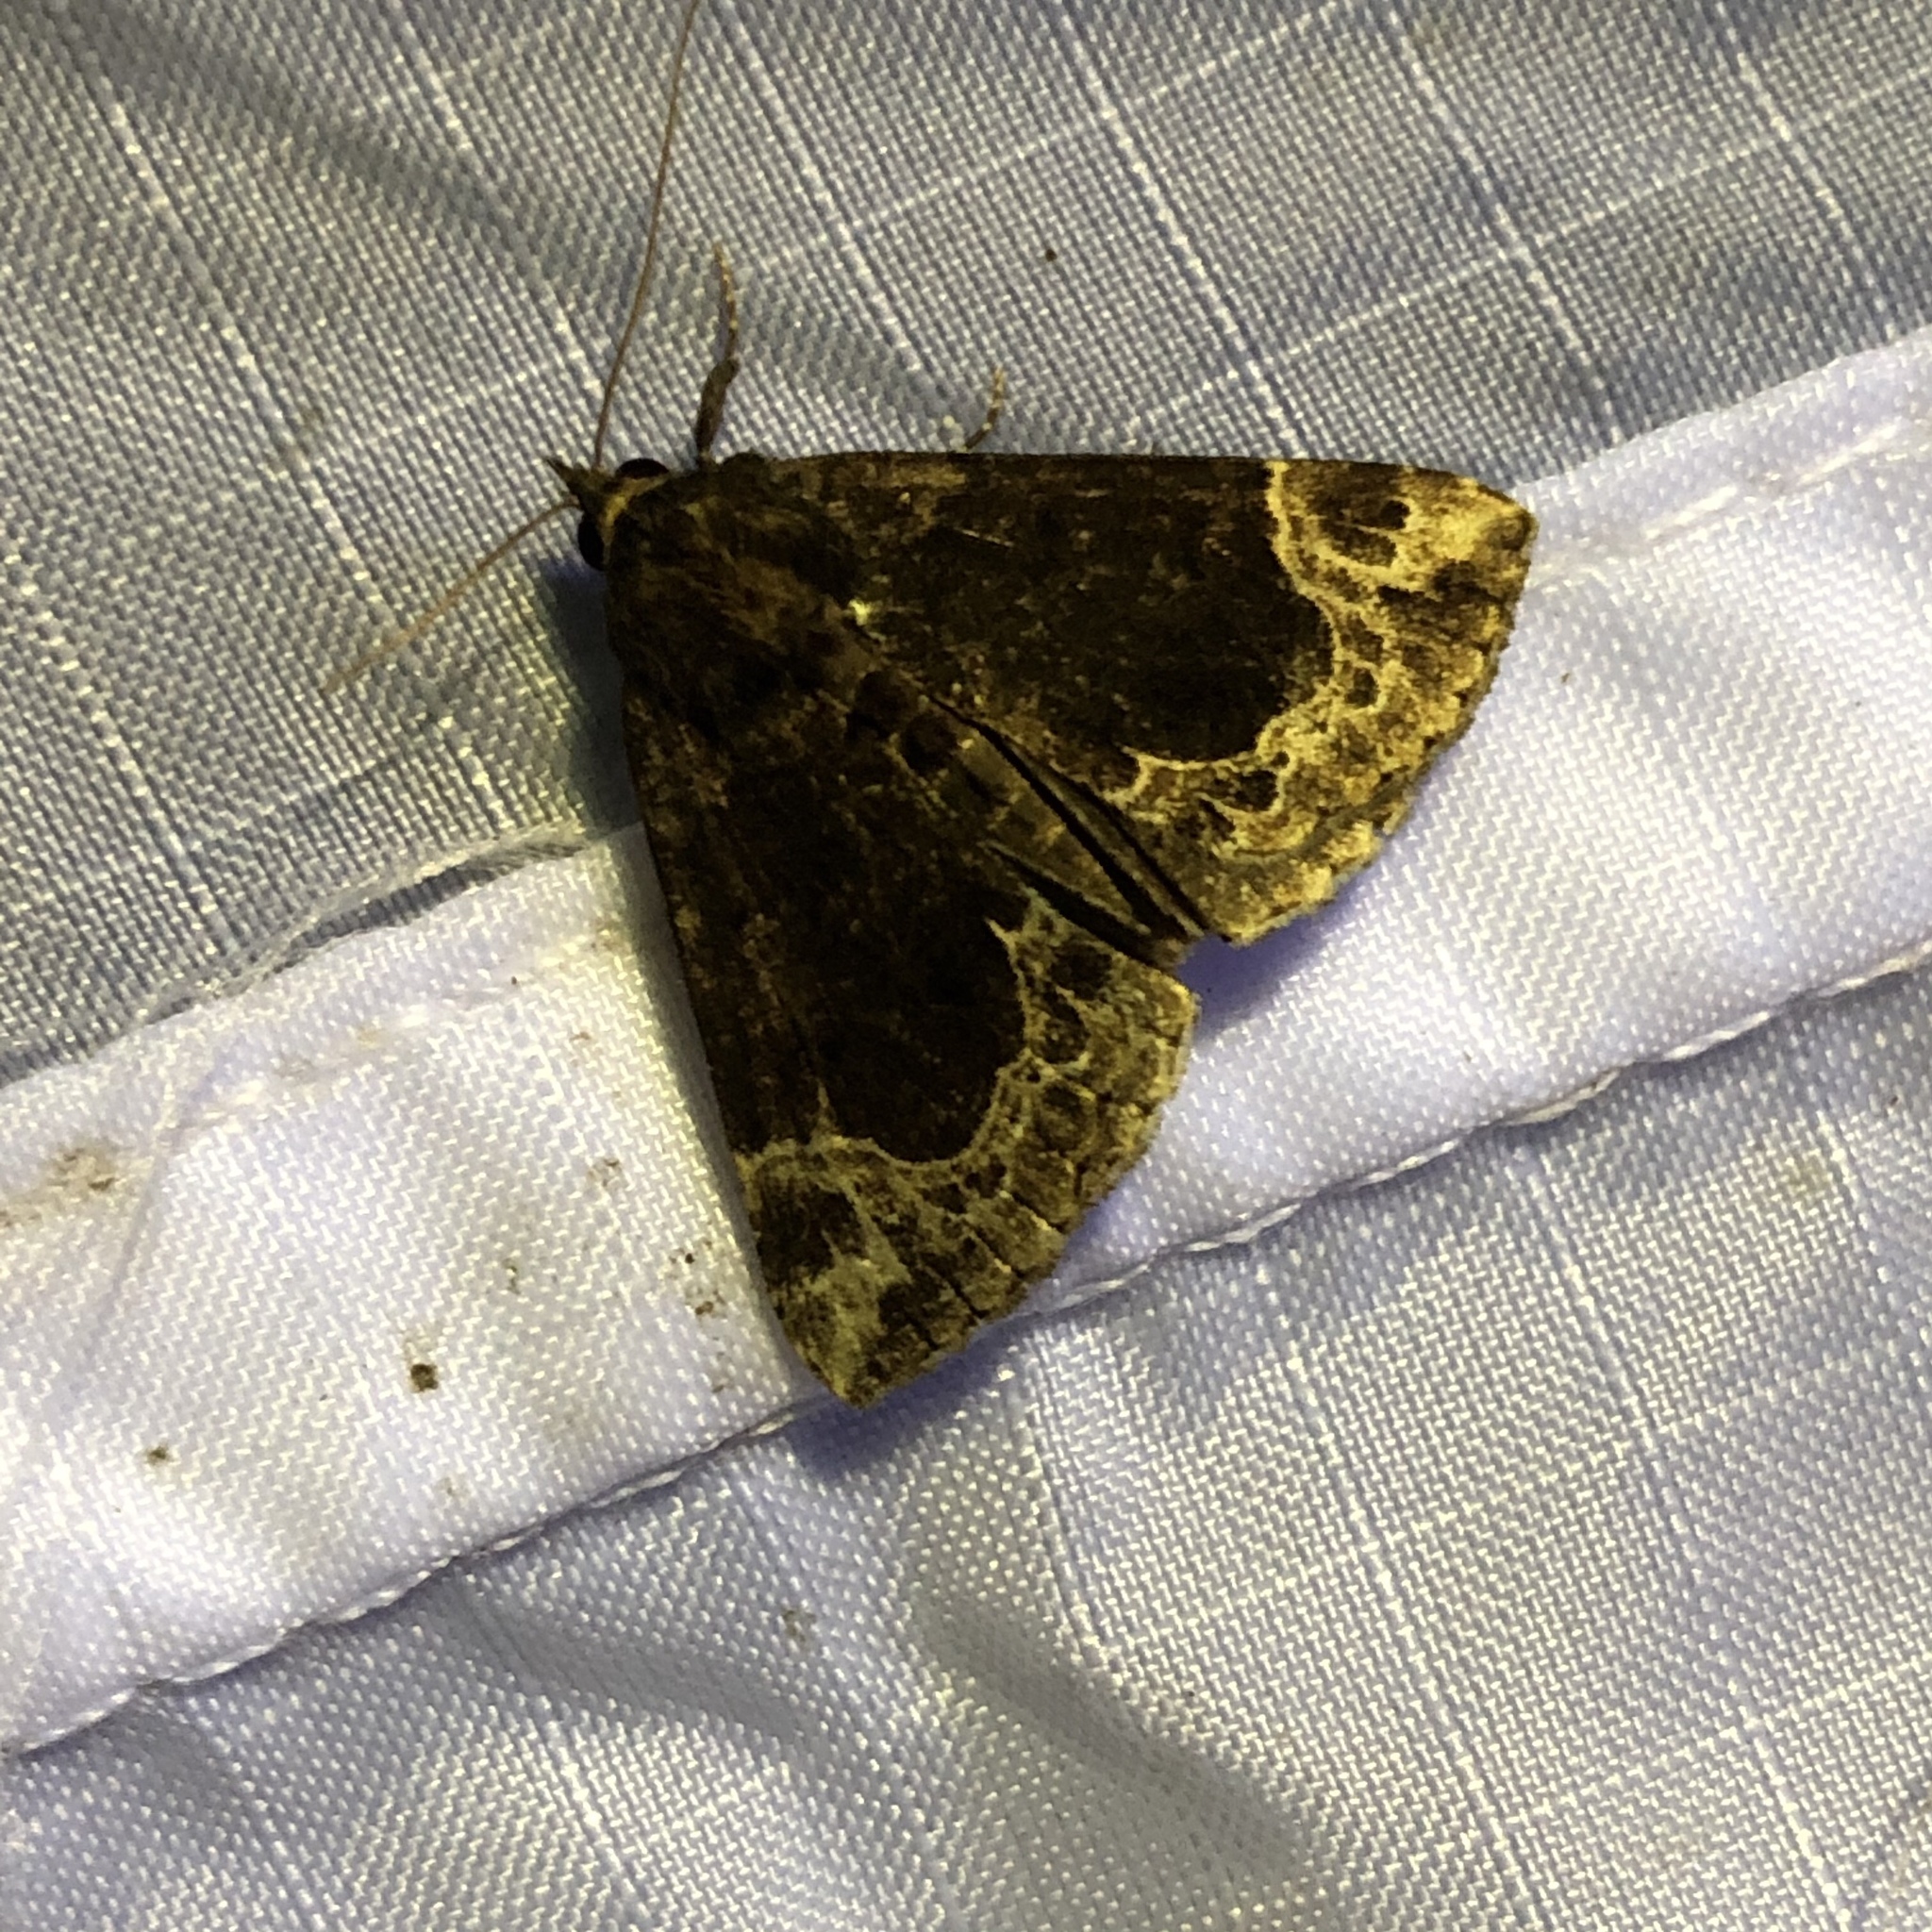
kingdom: Animalia
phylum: Arthropoda
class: Insecta
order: Lepidoptera
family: Erebidae
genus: Hypena
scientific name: Hypena abalienalis
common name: White-lined snout
